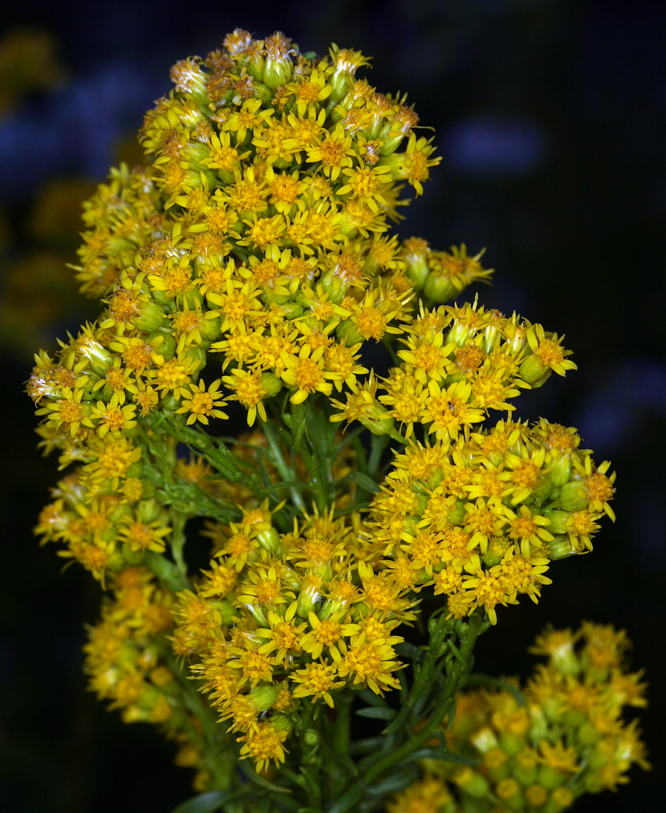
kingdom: Plantae
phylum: Tracheophyta
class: Magnoliopsida
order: Asterales
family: Asteraceae
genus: Solidago
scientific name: Solidago spectabilis
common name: Basin goldenrod
